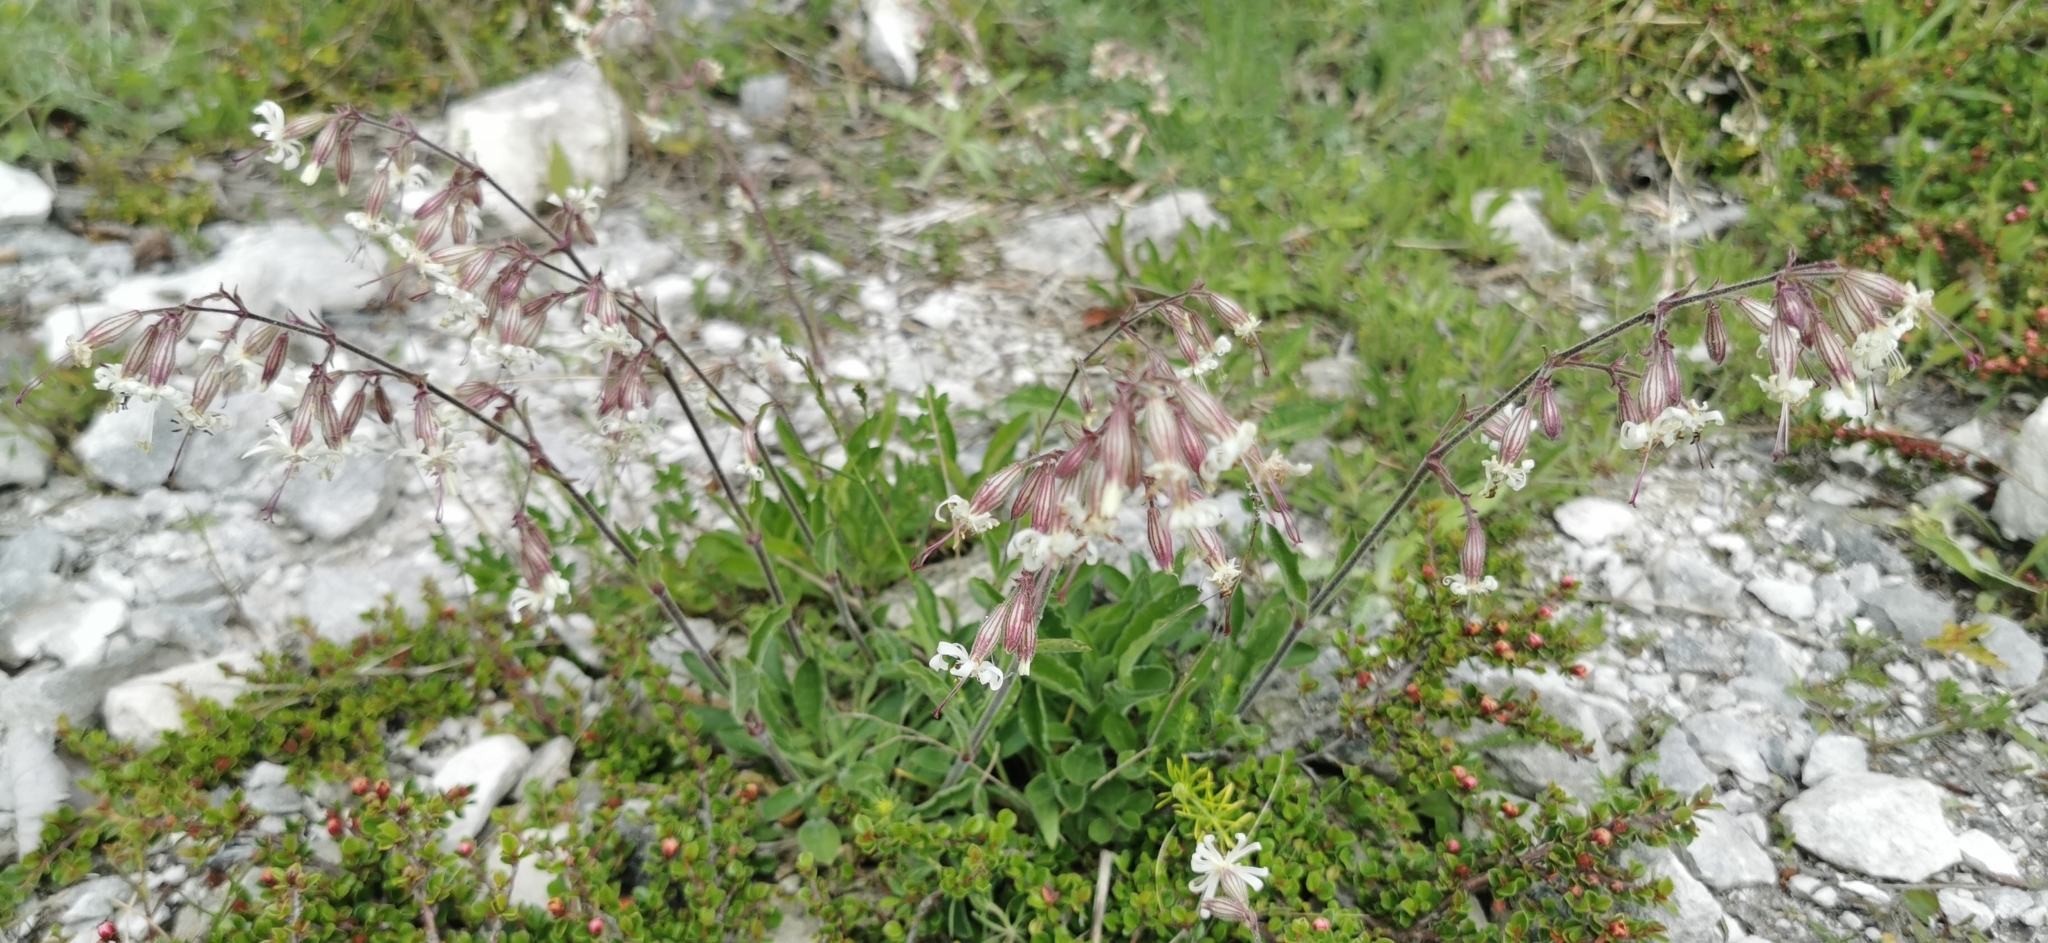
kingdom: Plantae
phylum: Tracheophyta
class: Magnoliopsida
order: Caryophyllales
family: Caryophyllaceae
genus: Silene
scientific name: Silene nutans
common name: Nottingham catchfly
